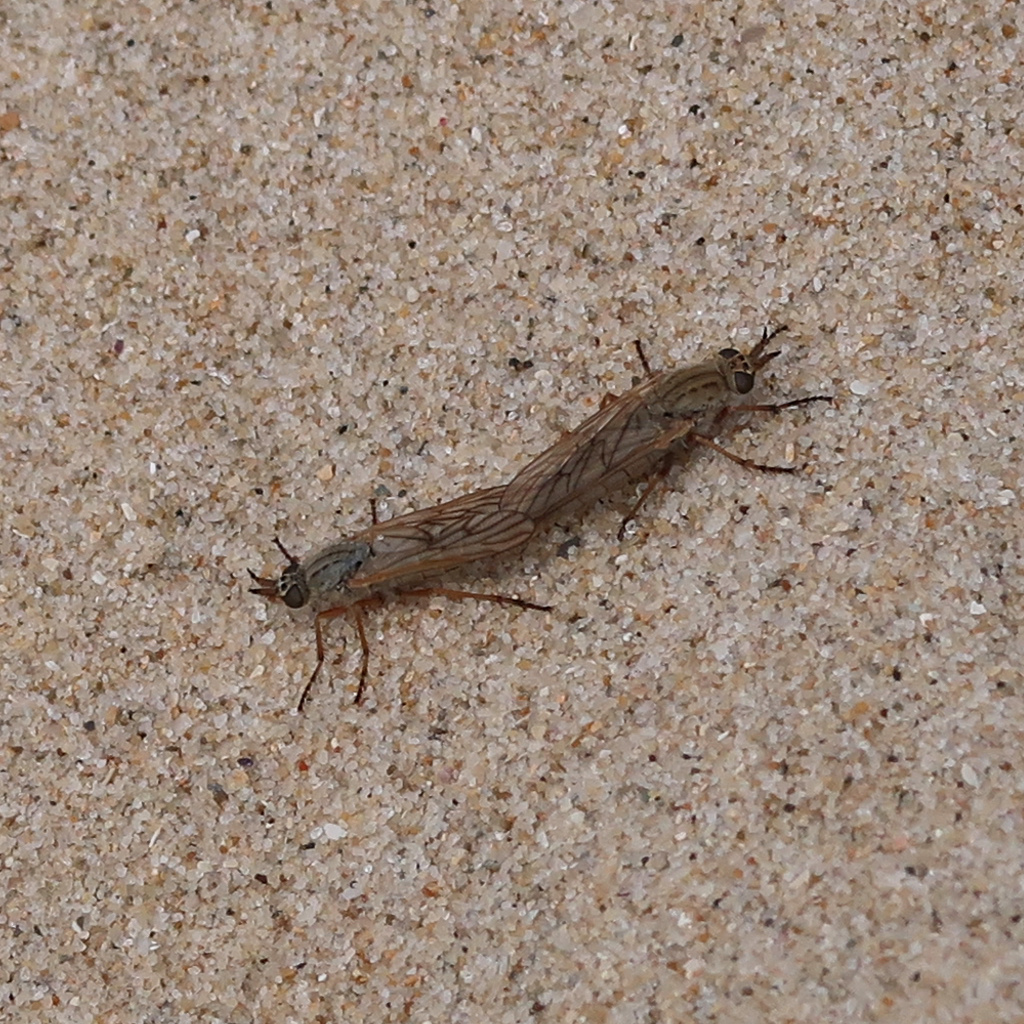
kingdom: Animalia
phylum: Arthropoda
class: Insecta
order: Diptera
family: Therevidae
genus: Anabarhynchus
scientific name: Anabarhynchus fuscoapicatus
